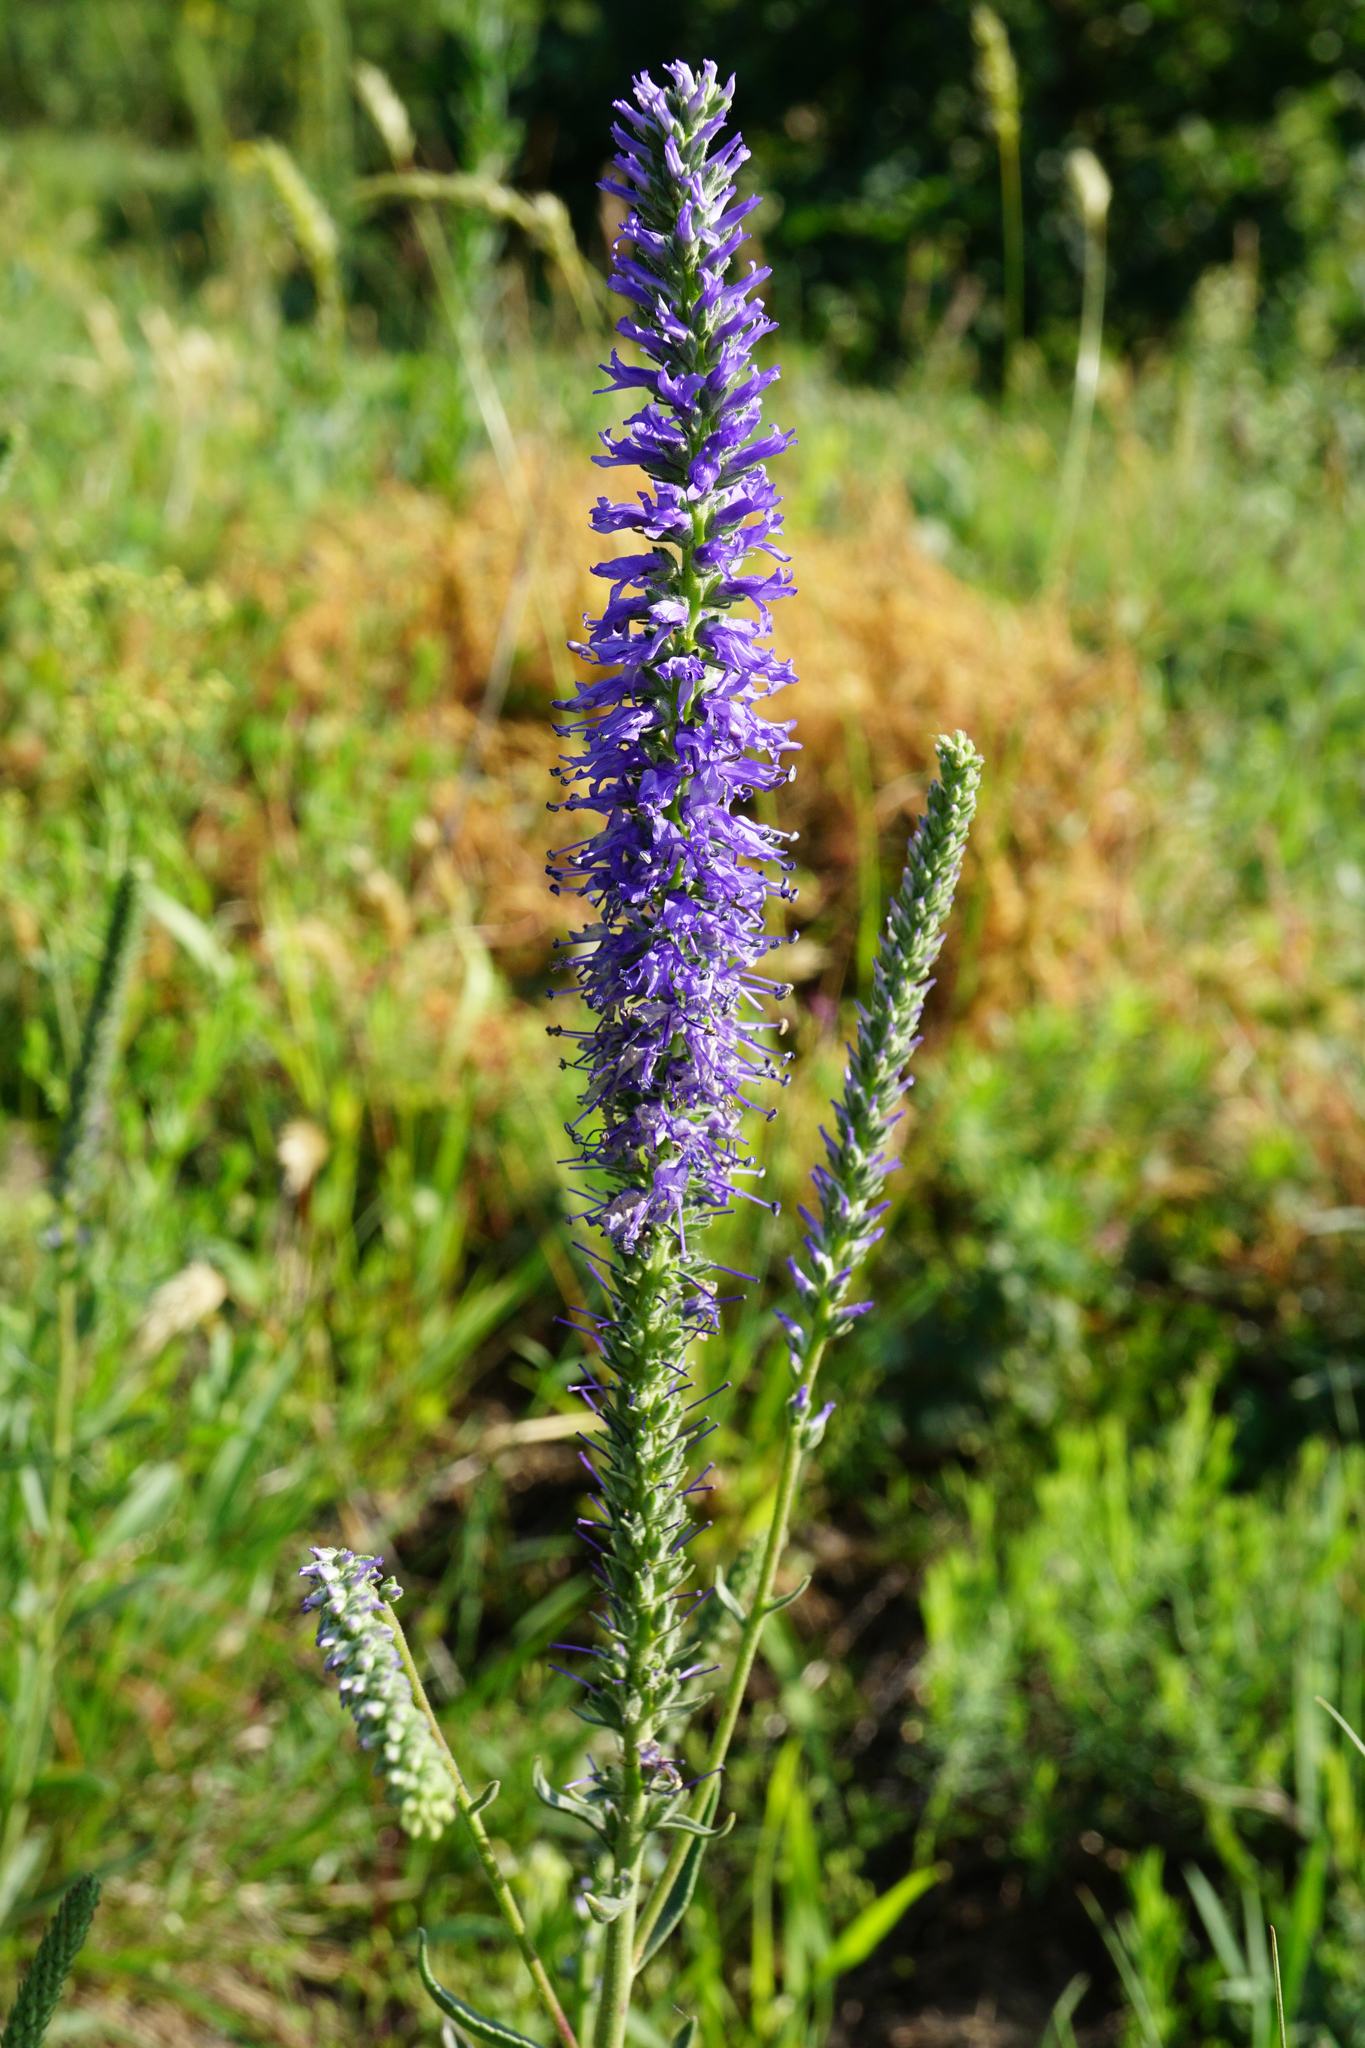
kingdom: Plantae
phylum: Tracheophyta
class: Magnoliopsida
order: Lamiales
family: Plantaginaceae
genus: Veronica
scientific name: Veronica spicata
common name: Spiked speedwell
